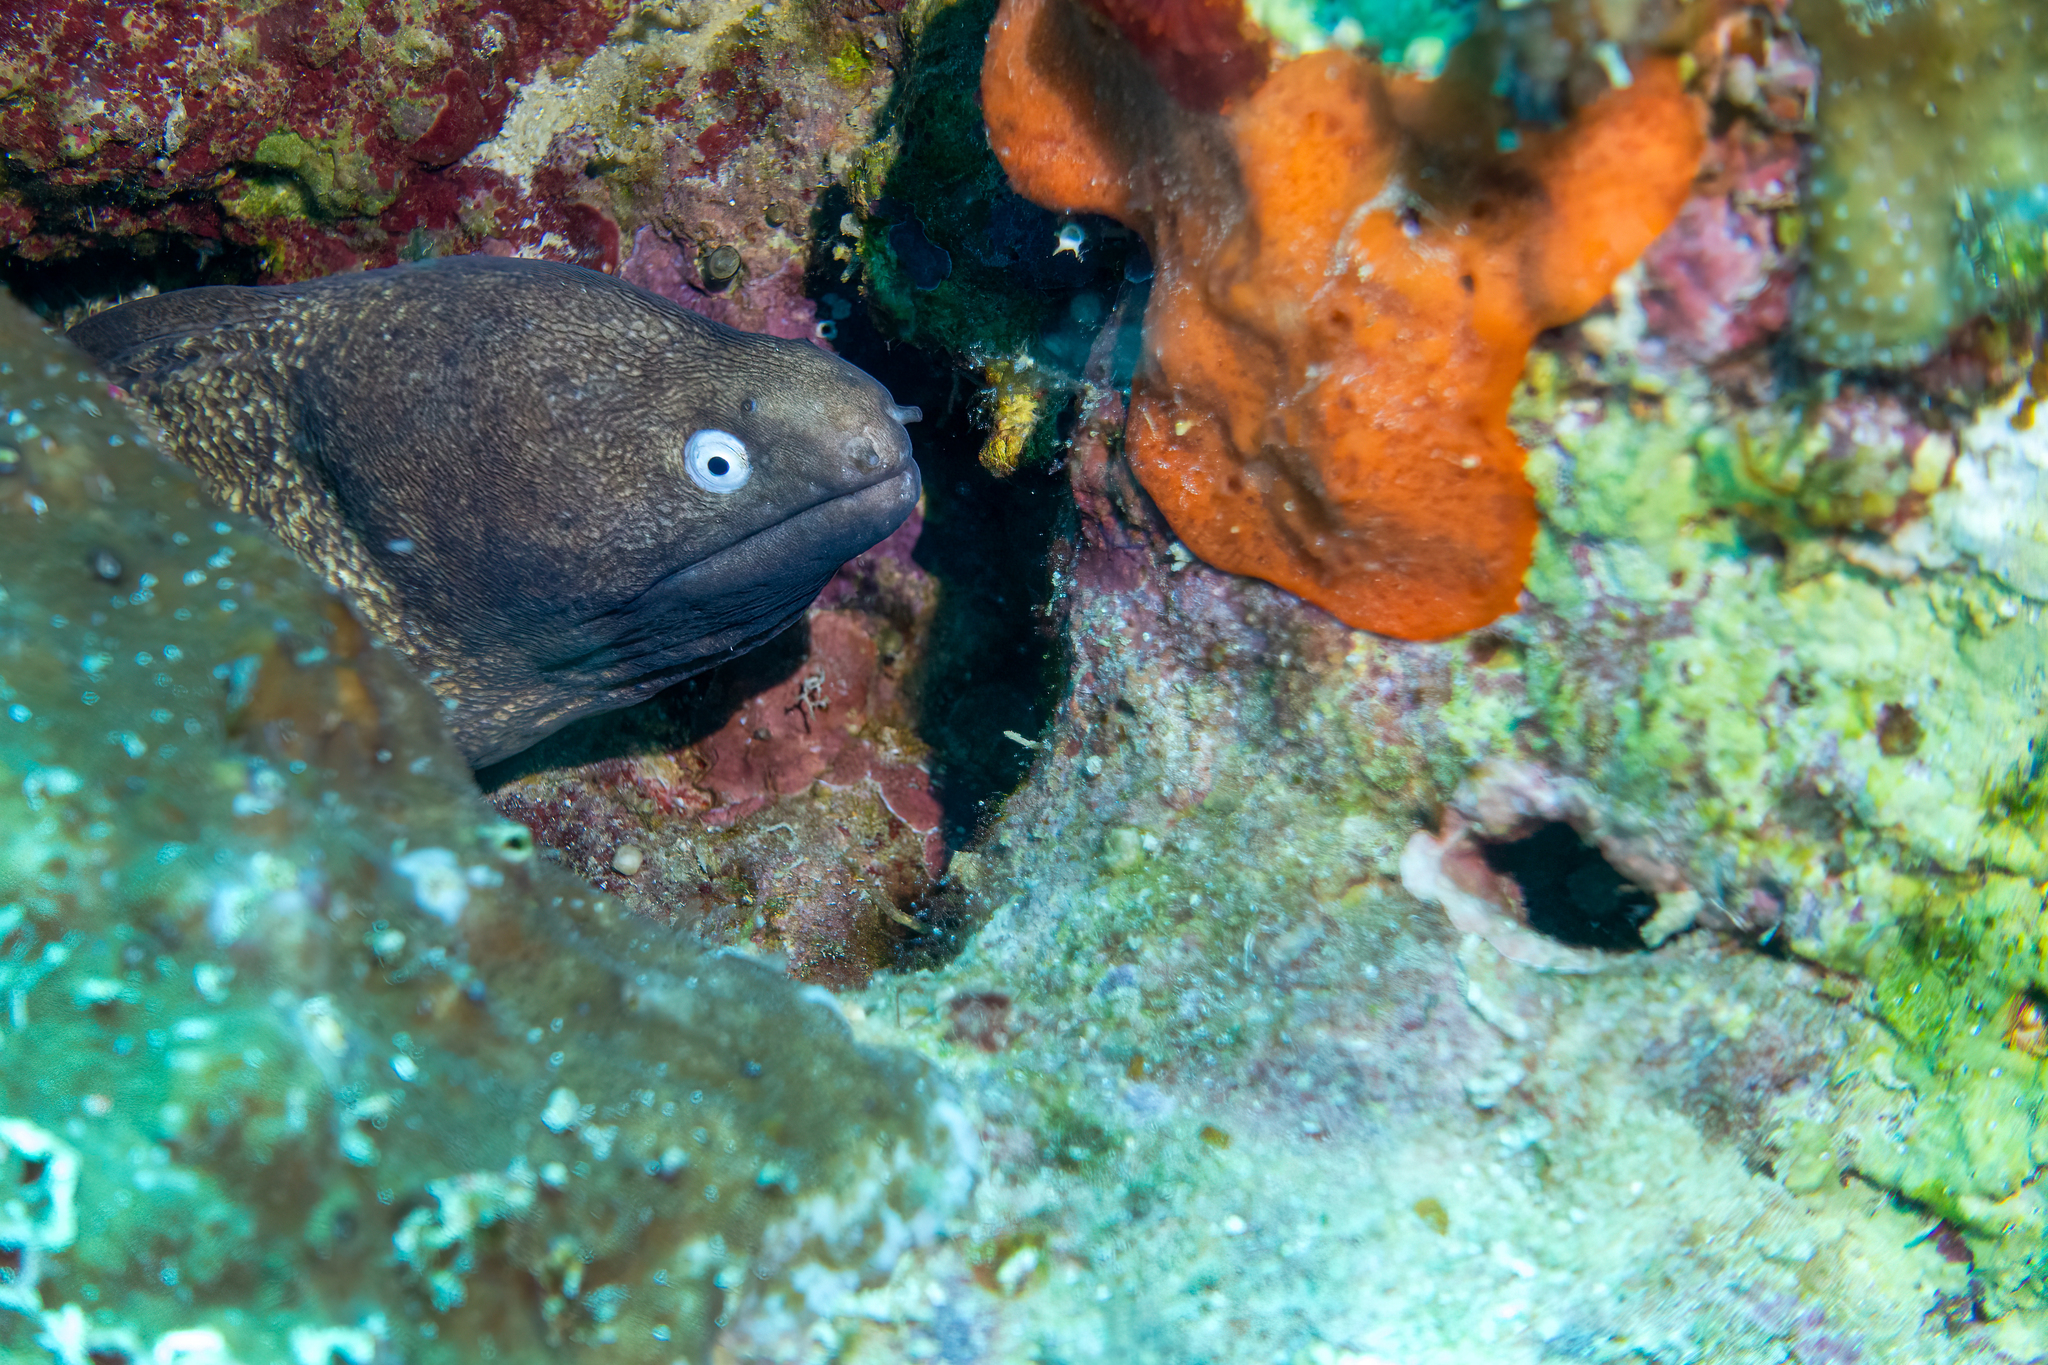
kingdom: Animalia
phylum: Chordata
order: Anguilliformes
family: Muraenidae
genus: Gymnothorax
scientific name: Gymnothorax thyrsoideus
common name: Greyface moray
